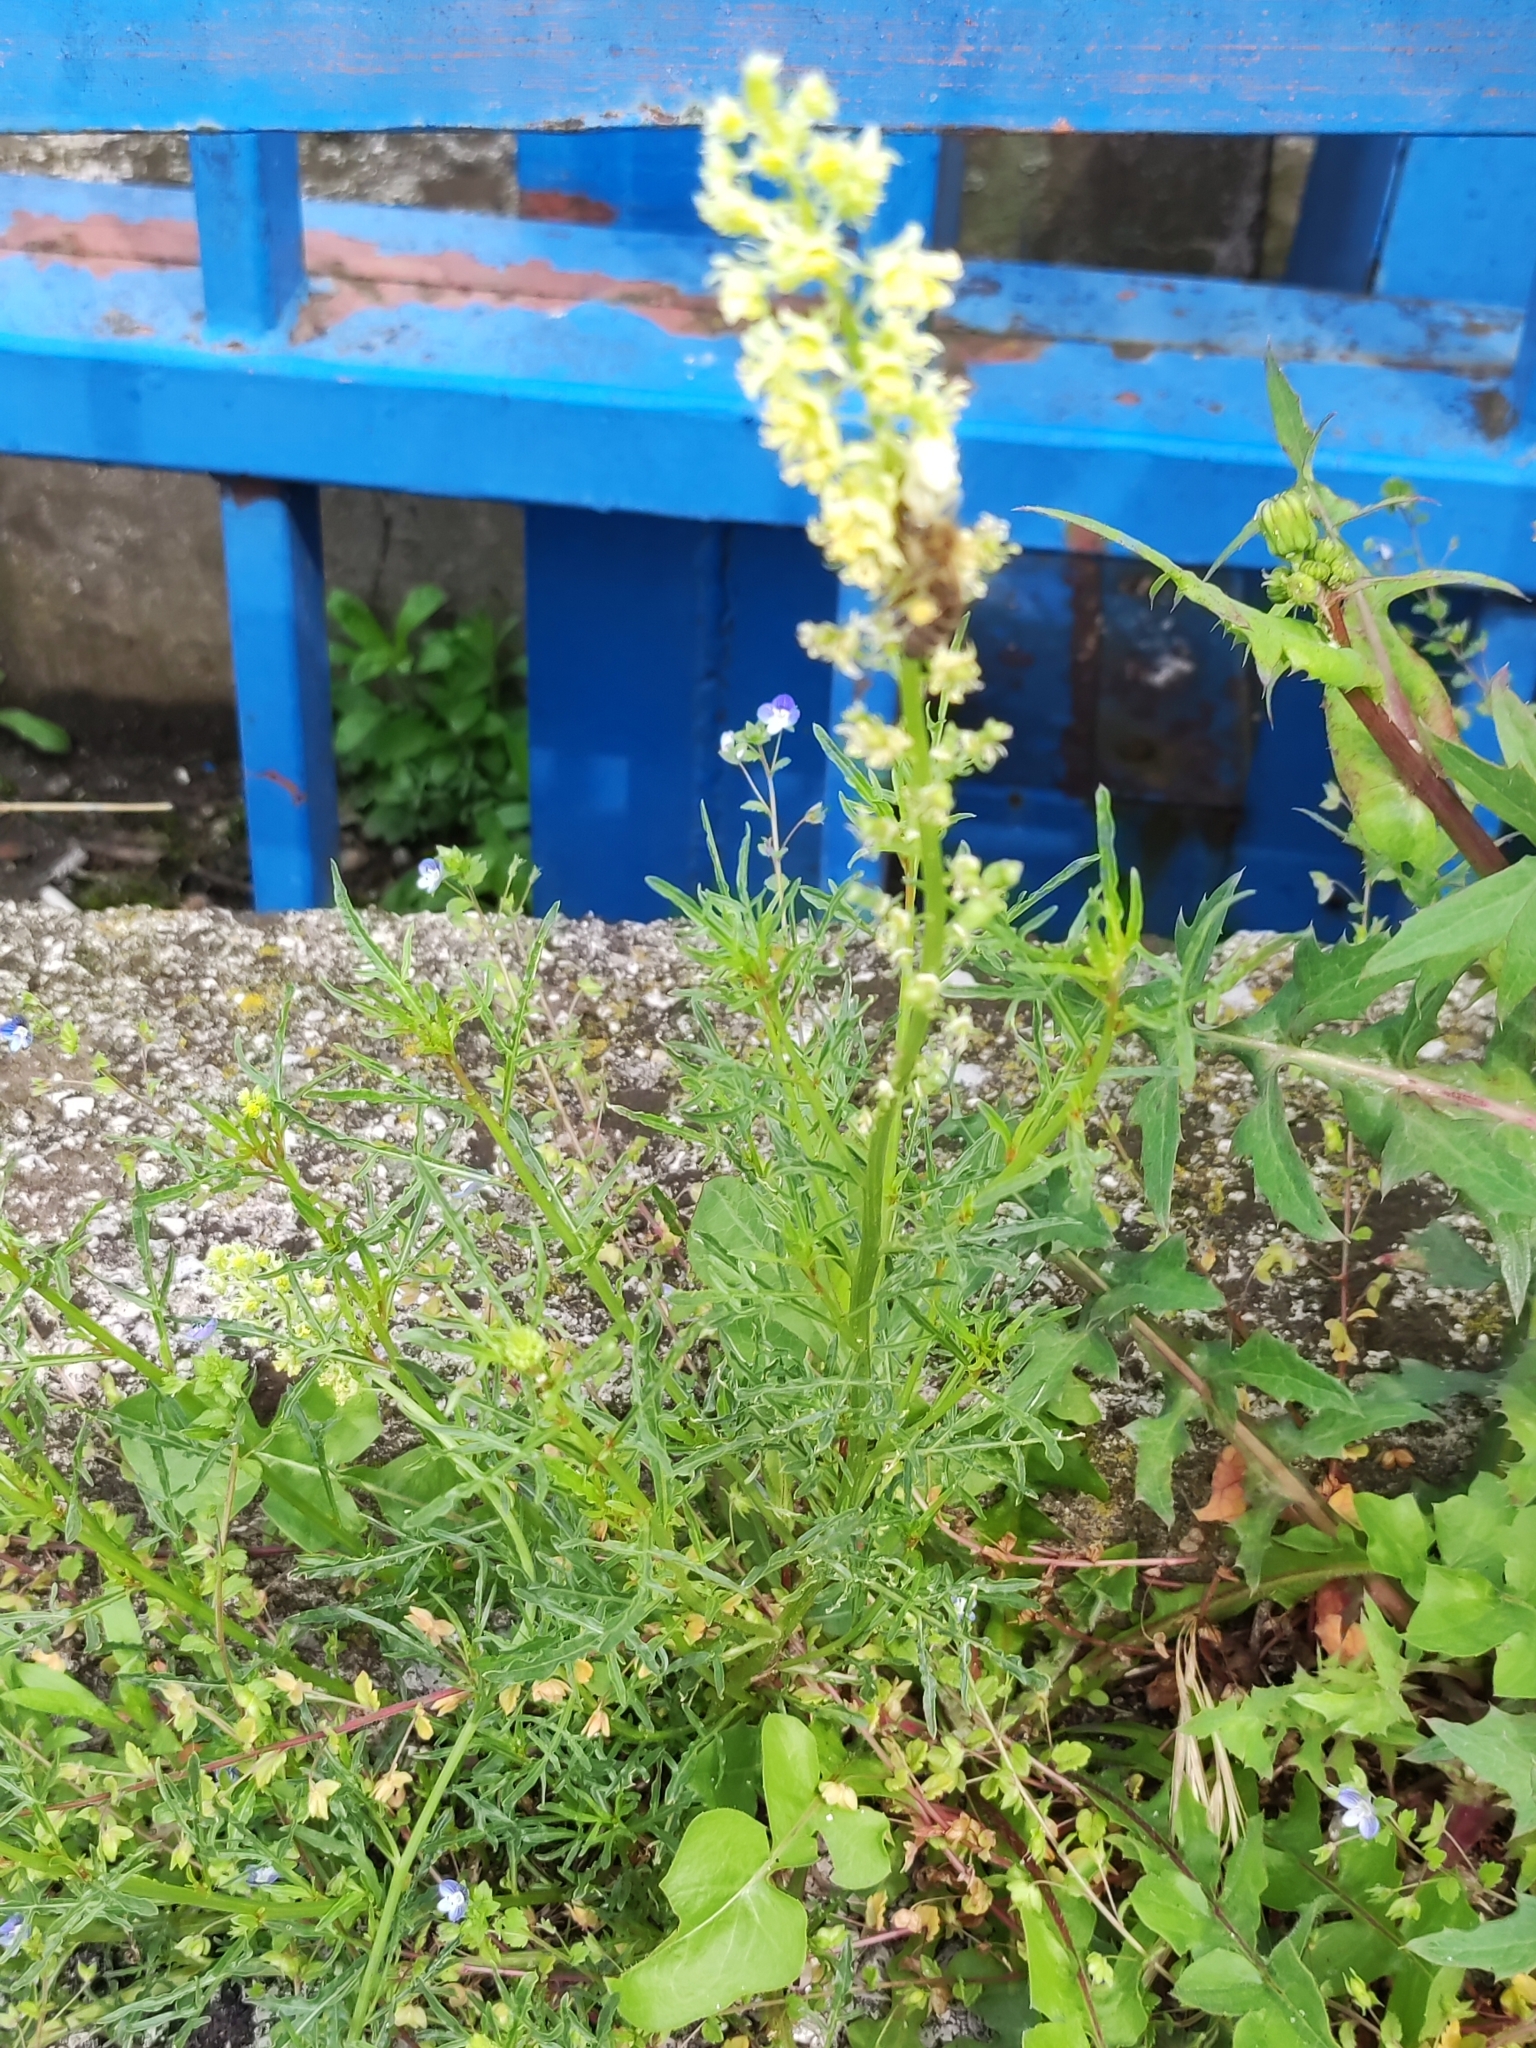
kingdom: Plantae
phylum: Tracheophyta
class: Magnoliopsida
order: Brassicales
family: Resedaceae
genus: Reseda
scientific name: Reseda lutea
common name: Wild mignonette
